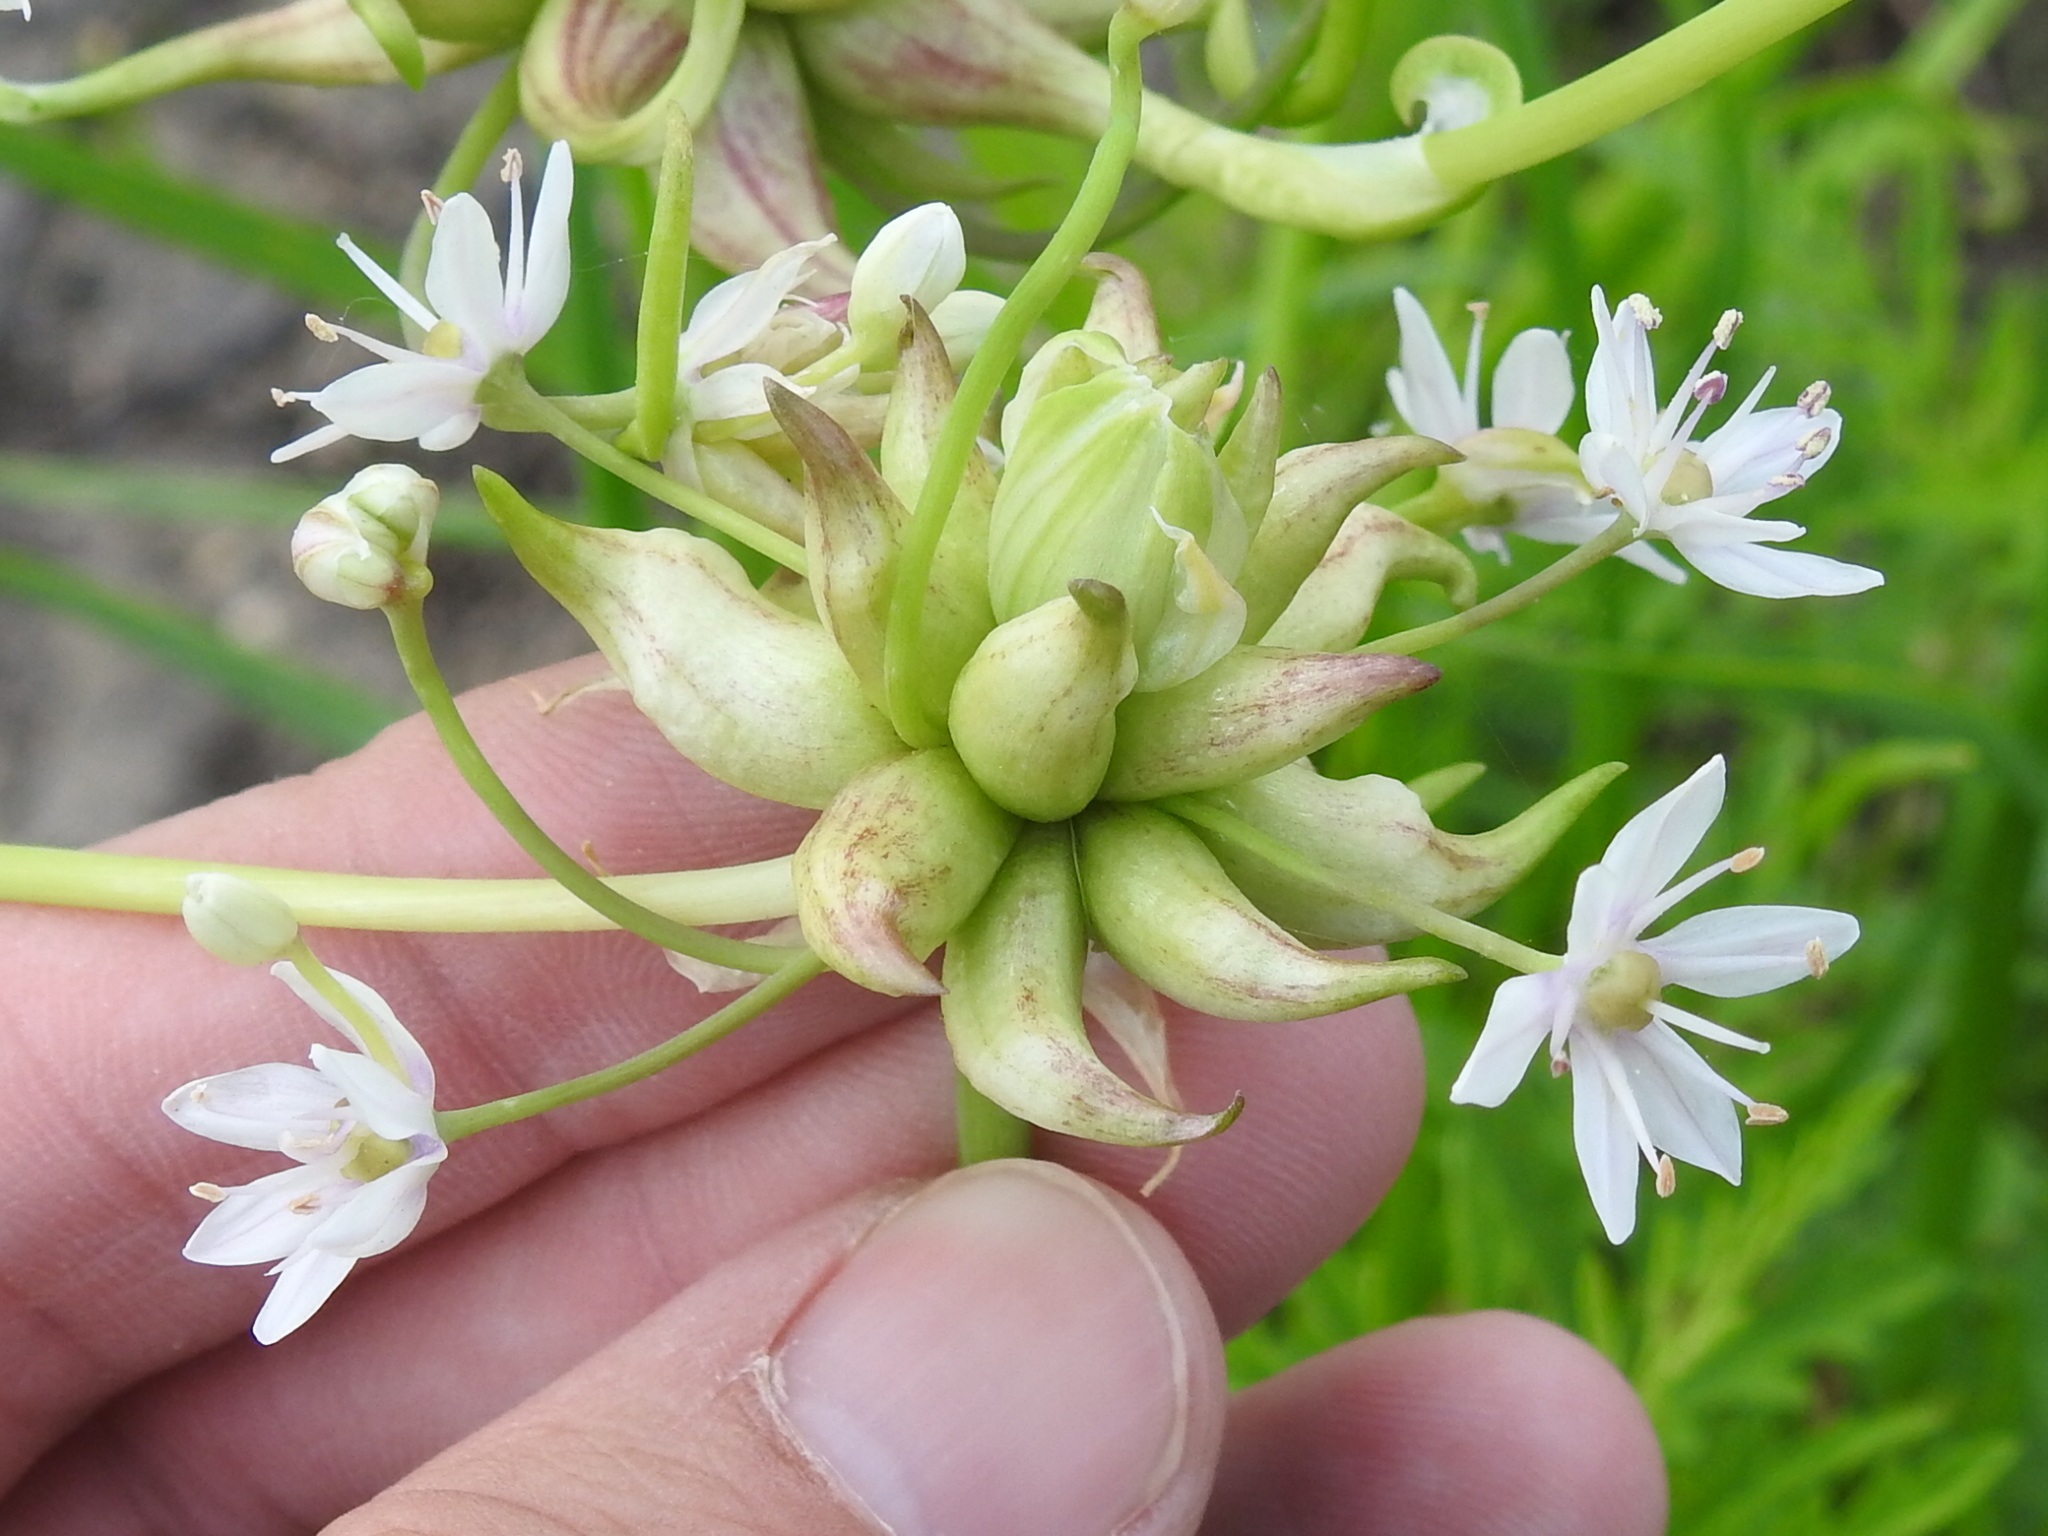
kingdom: Plantae
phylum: Tracheophyta
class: Liliopsida
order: Asparagales
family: Amaryllidaceae
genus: Allium
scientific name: Allium canadense
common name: Meadow garlic
